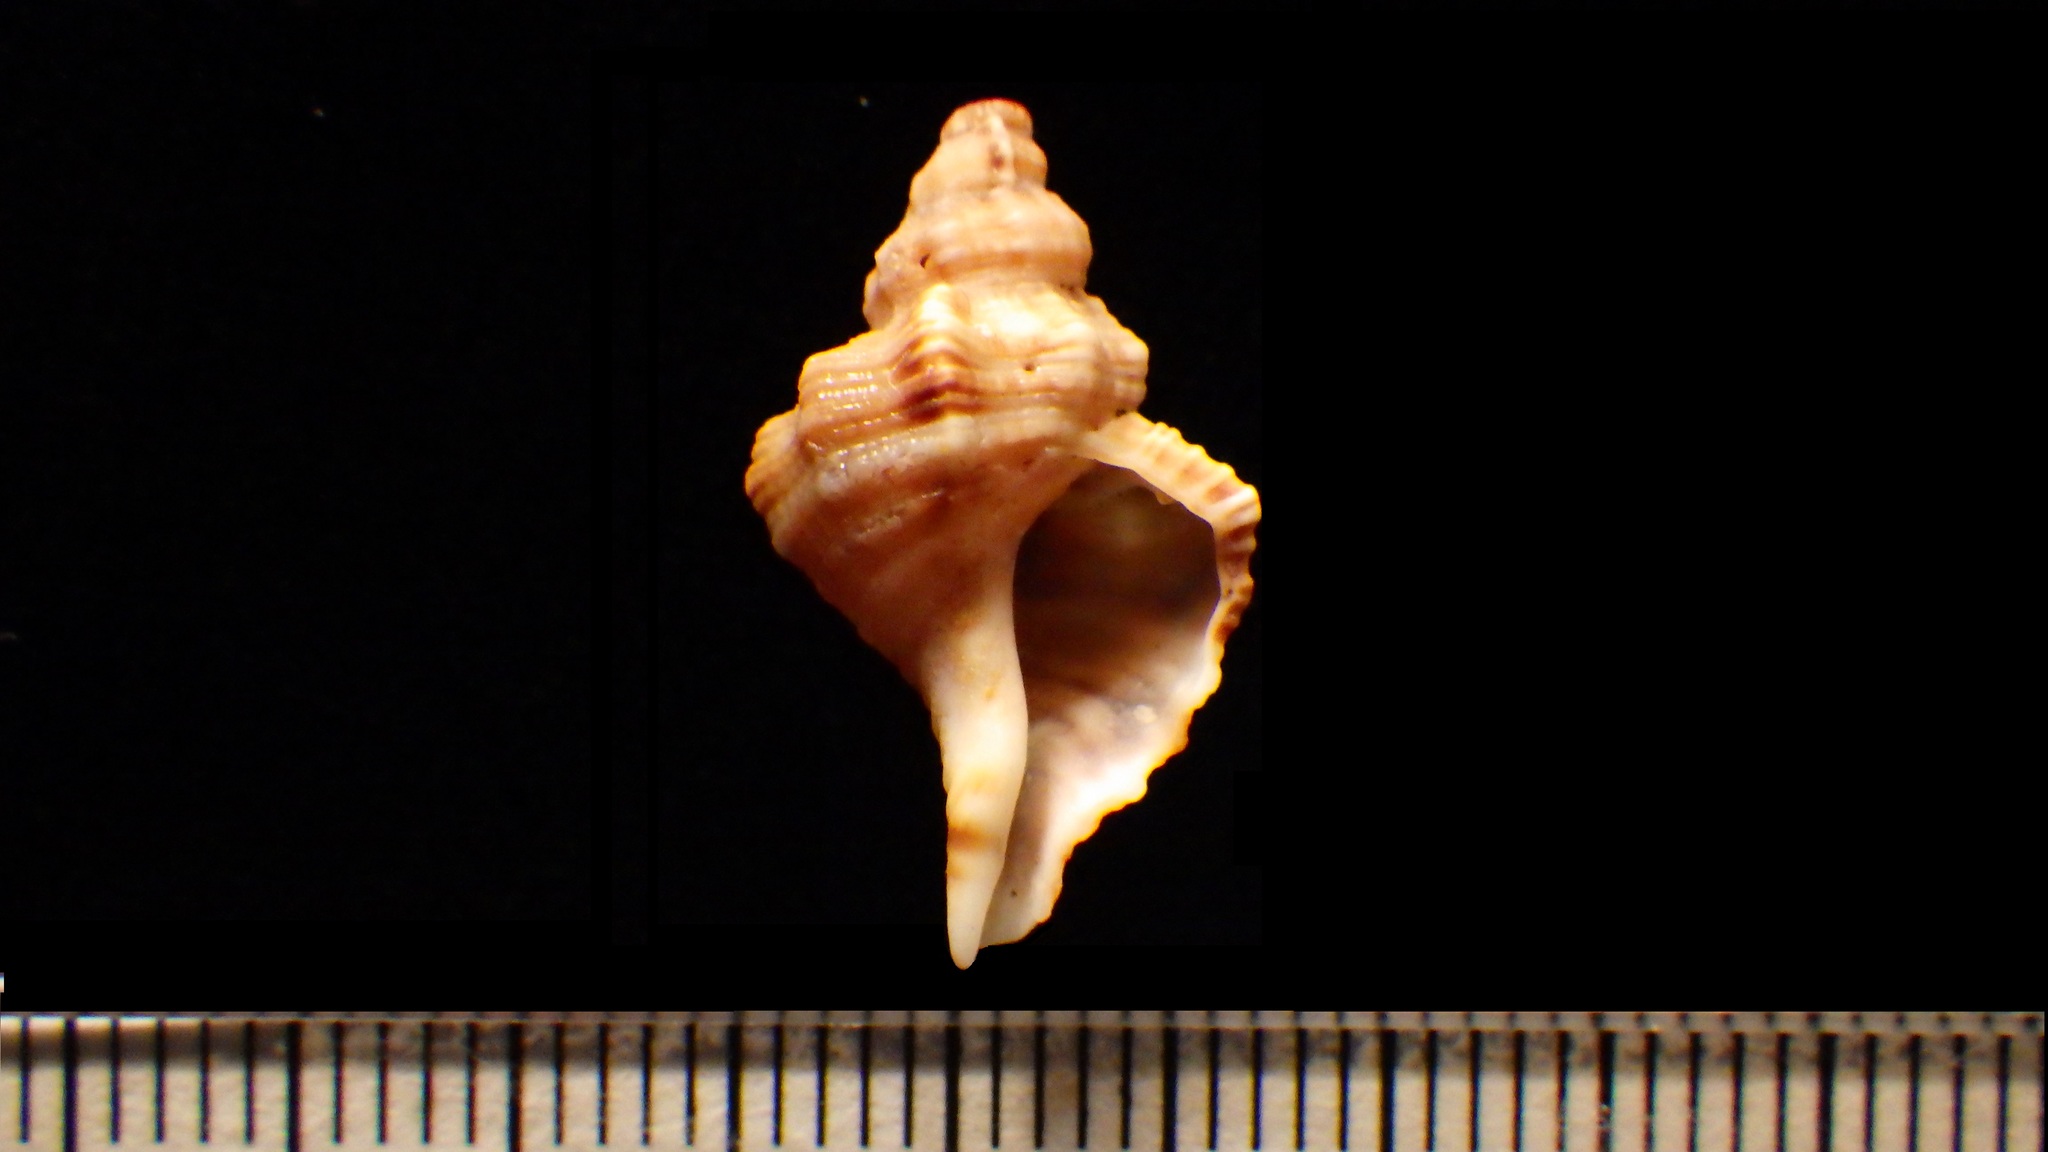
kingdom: Animalia
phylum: Mollusca
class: Gastropoda
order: Littorinimorpha
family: Cymatiidae
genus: Turritriton
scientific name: Turritriton tenuiliratus
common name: Slender triton
